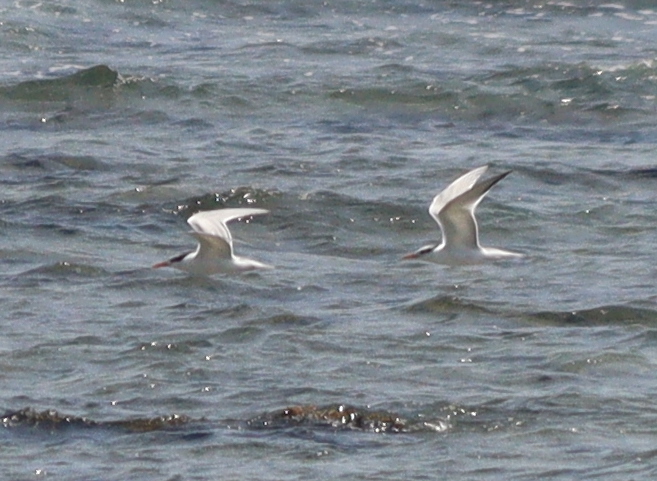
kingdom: Animalia
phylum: Chordata
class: Aves
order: Charadriiformes
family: Laridae
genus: Thalasseus
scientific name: Thalasseus bengalensis
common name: Lesser crested tern
